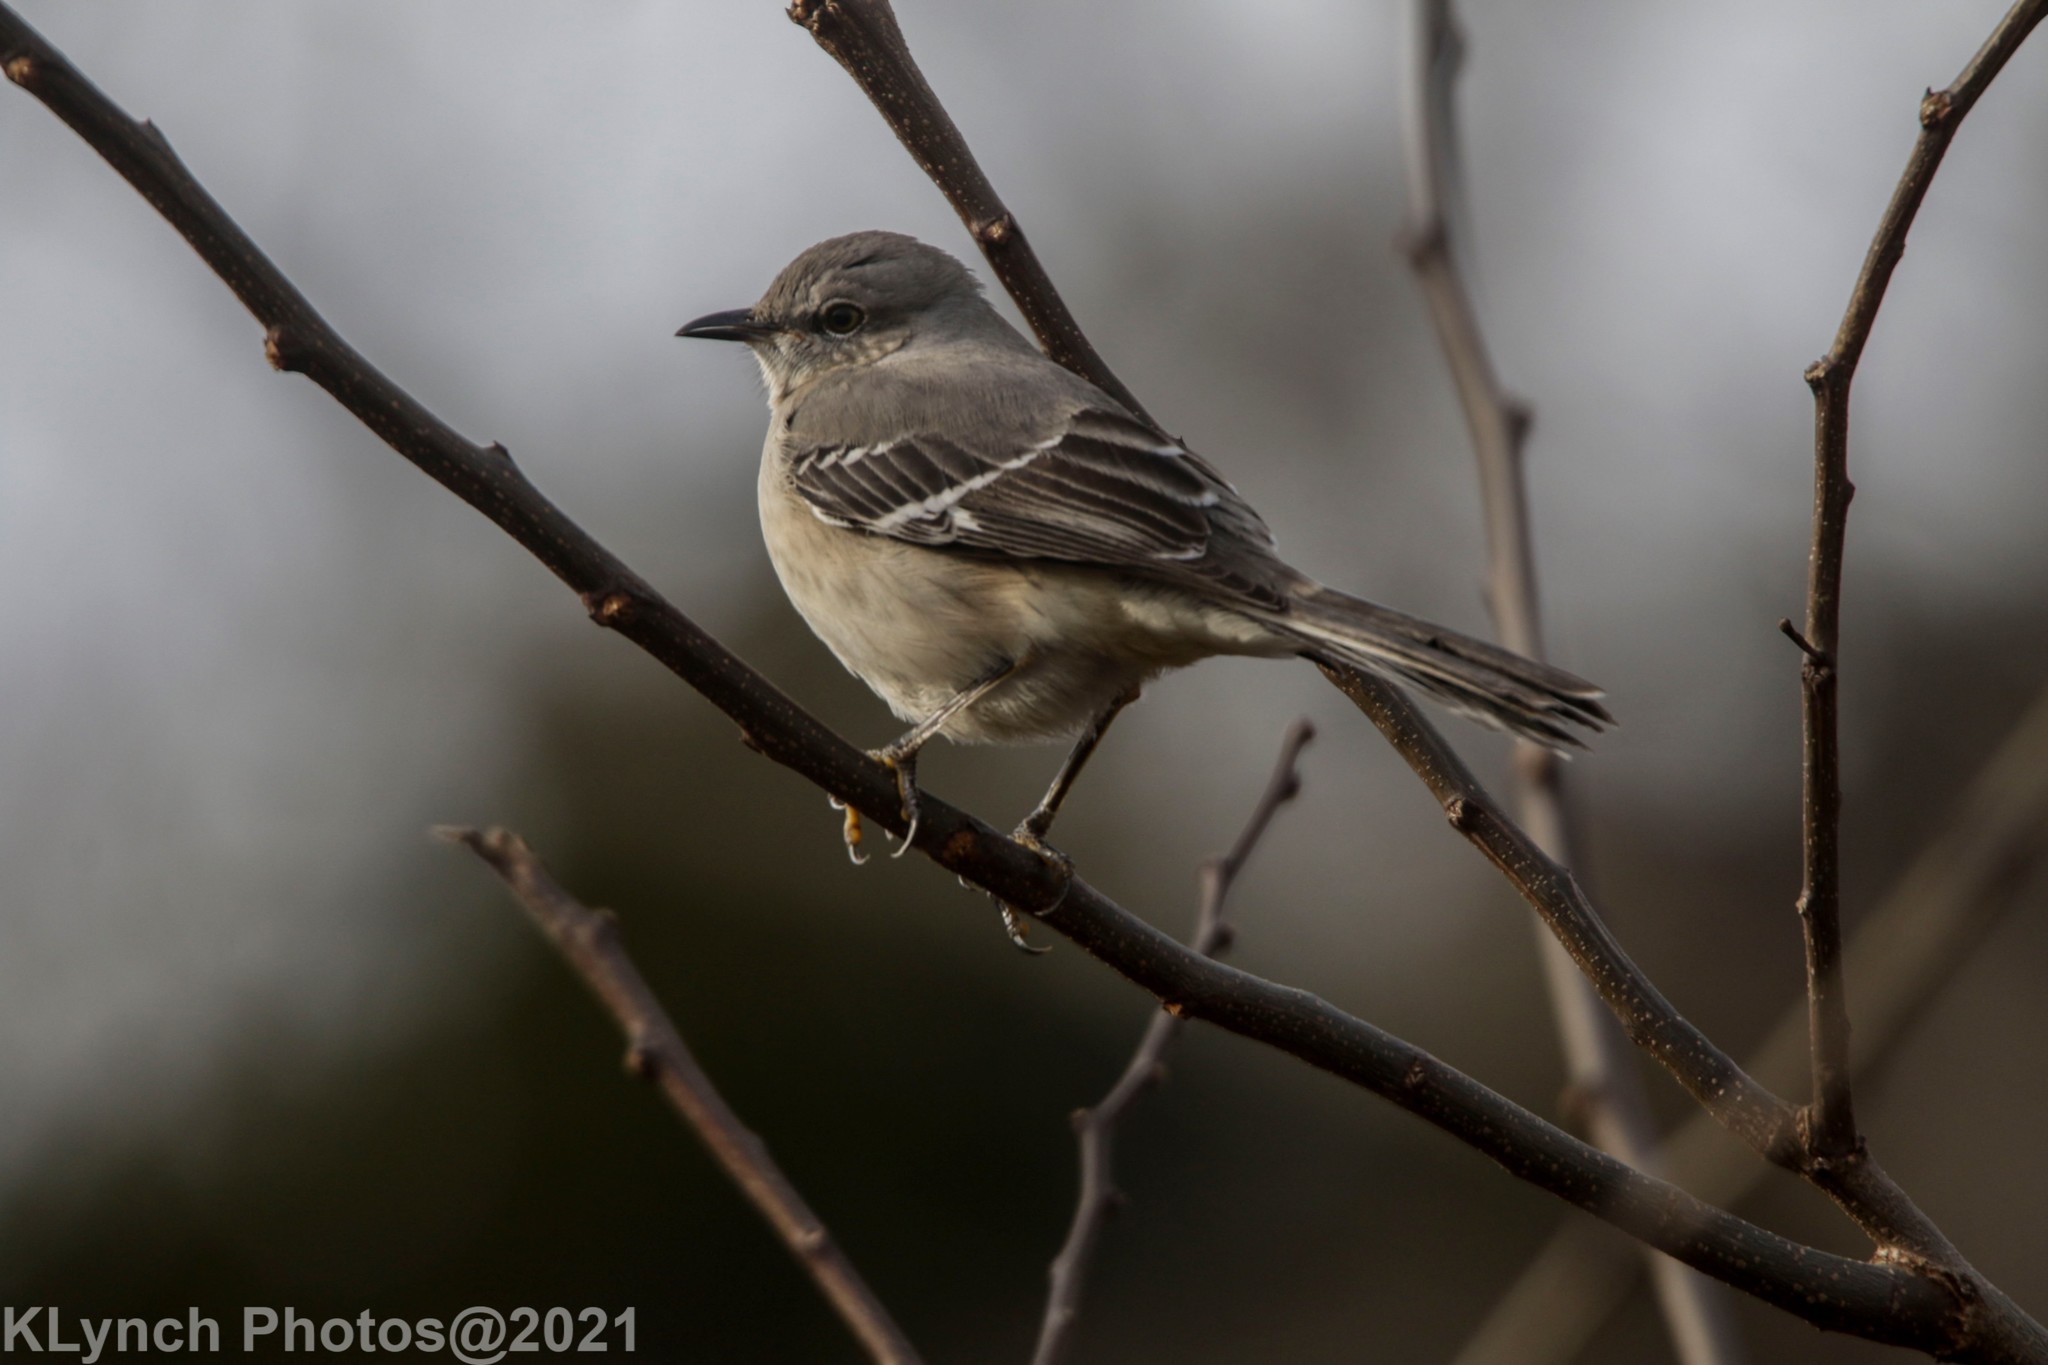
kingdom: Animalia
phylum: Chordata
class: Aves
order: Passeriformes
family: Mimidae
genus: Mimus
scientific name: Mimus polyglottos
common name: Northern mockingbird
